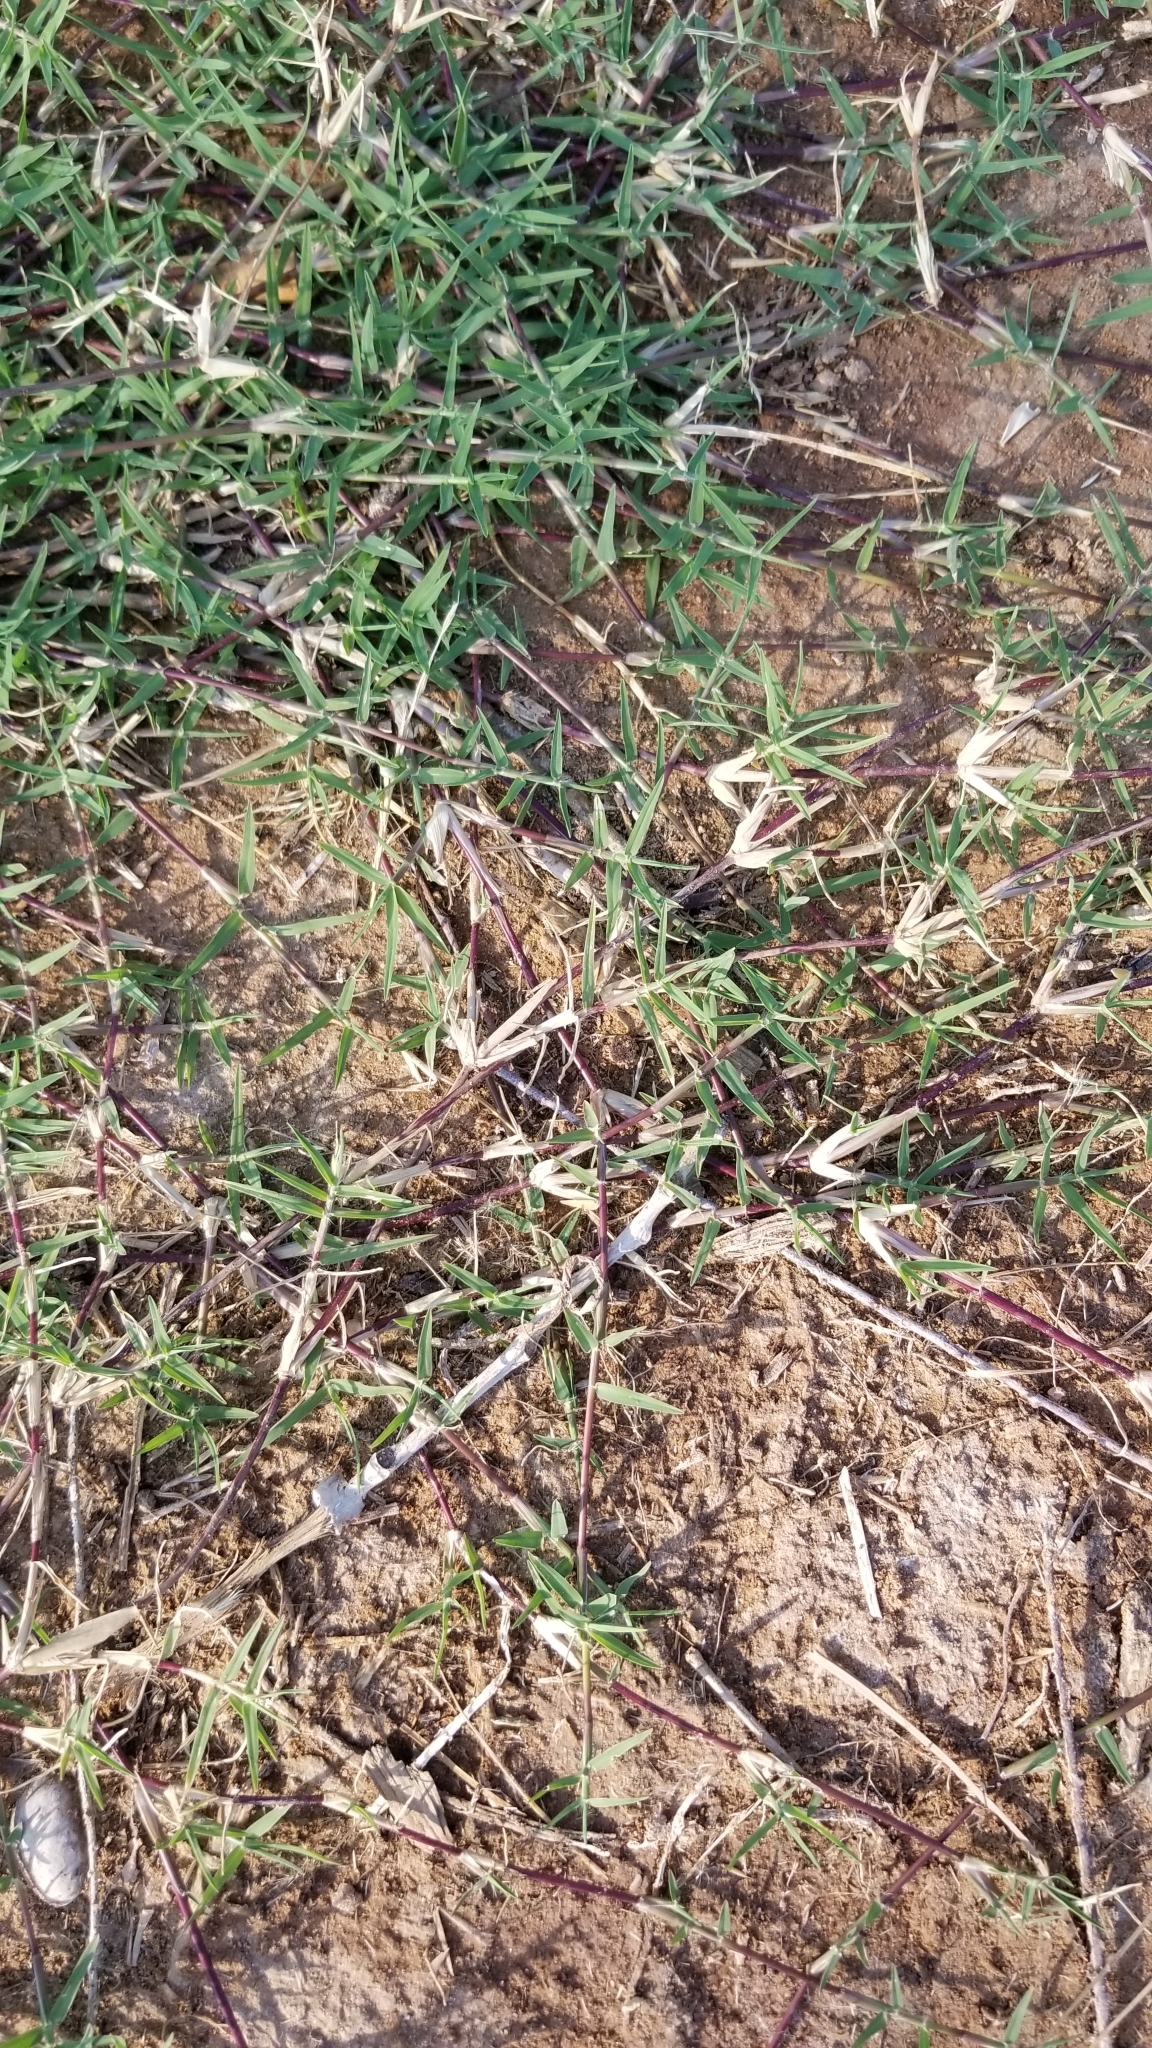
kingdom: Plantae
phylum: Tracheophyta
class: Liliopsida
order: Poales
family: Poaceae
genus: Cynodon
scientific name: Cynodon dactylon
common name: Bermuda grass
